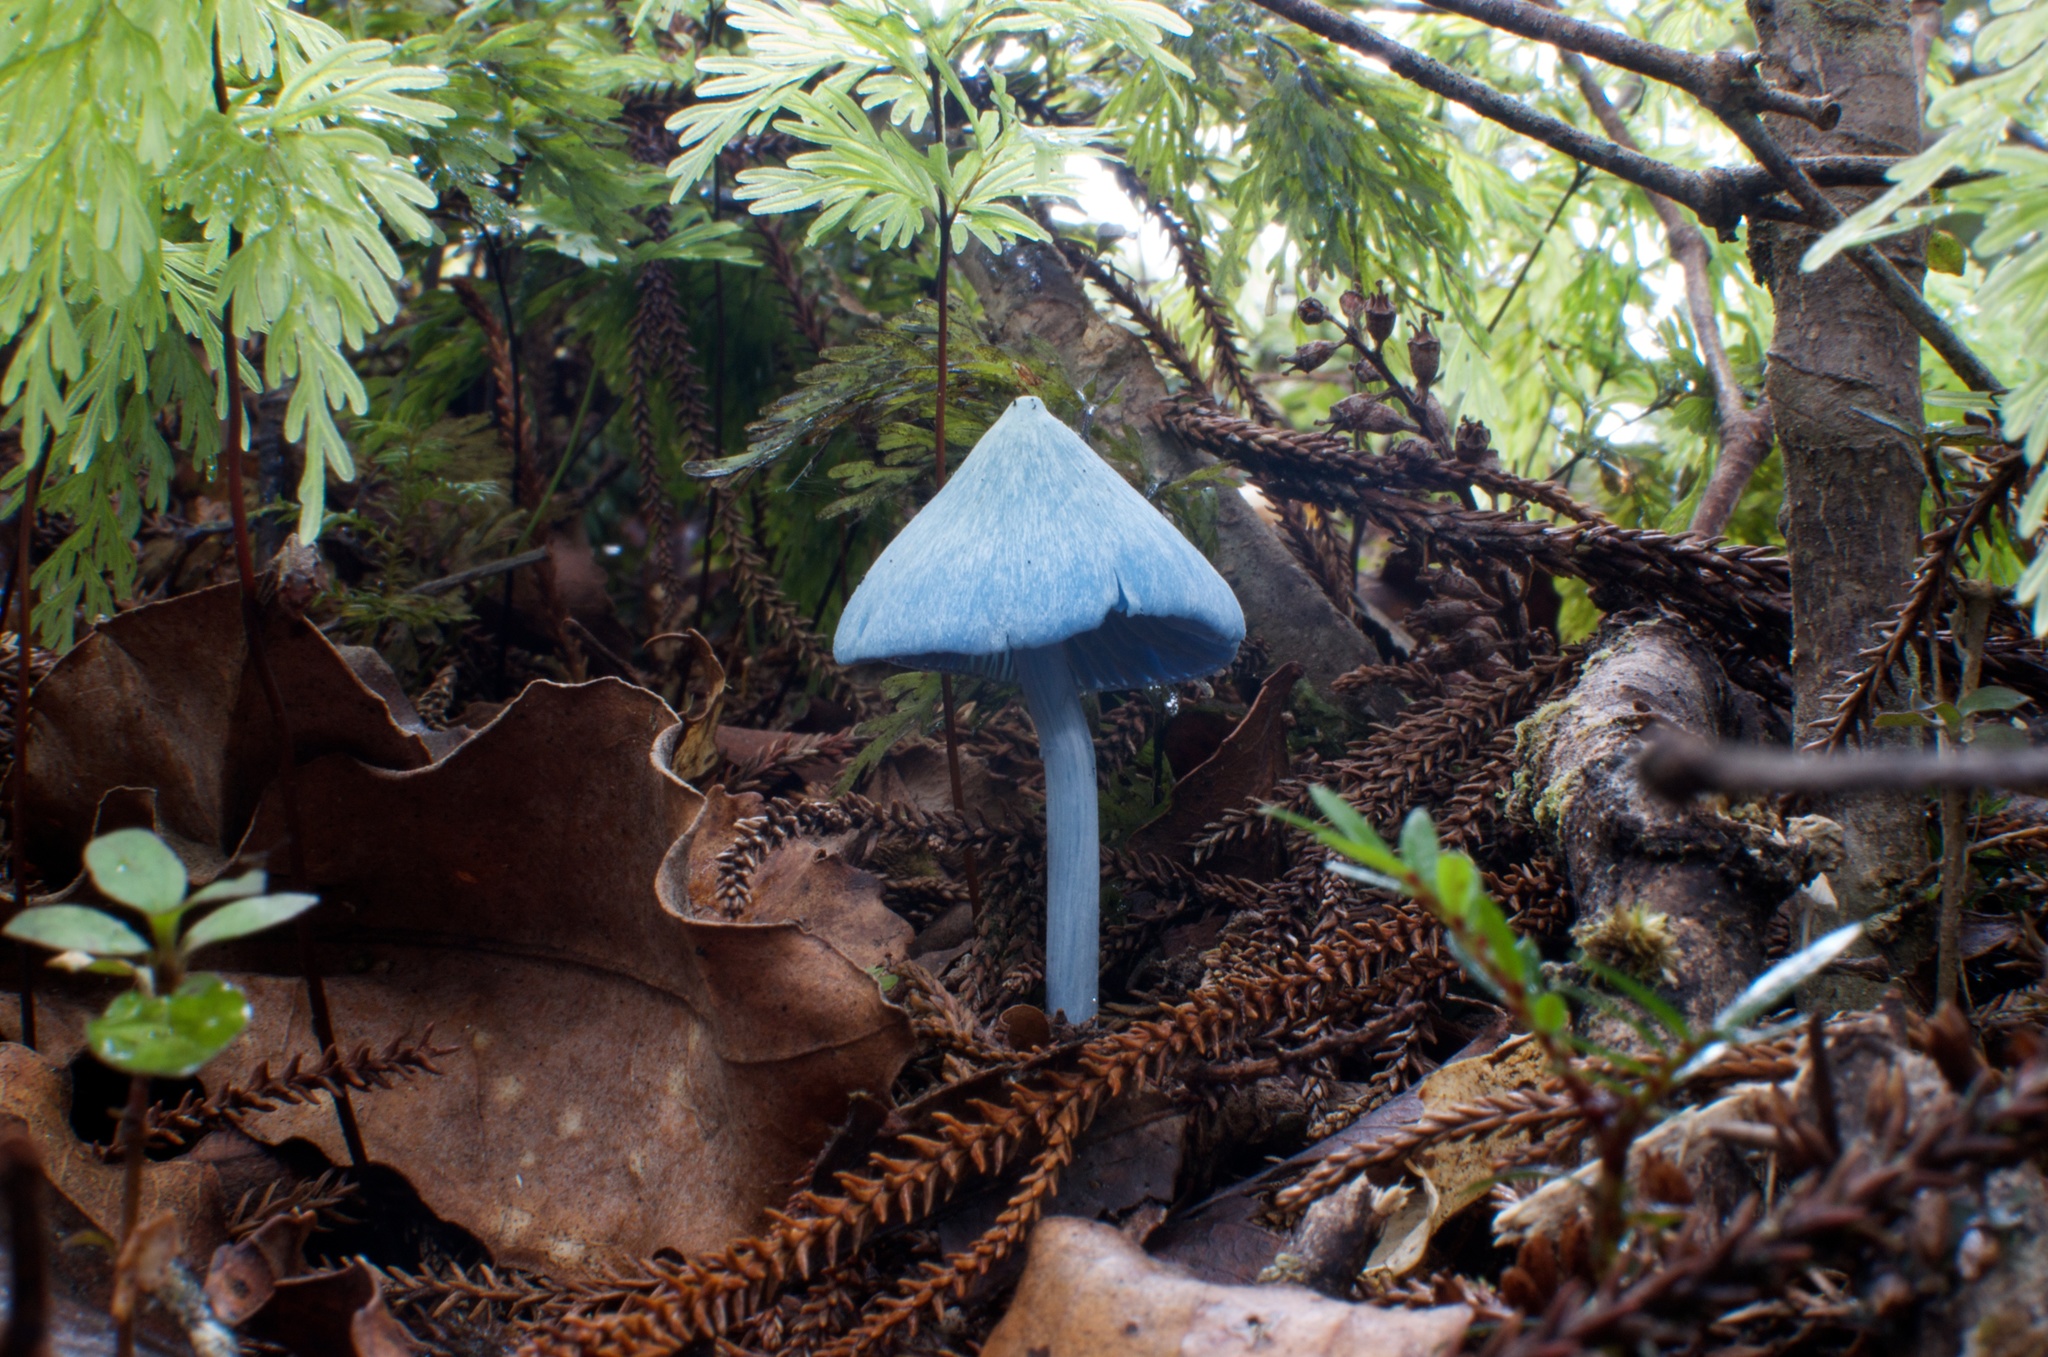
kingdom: Fungi
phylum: Basidiomycota
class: Agaricomycetes
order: Agaricales
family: Entolomataceae
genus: Entoloma
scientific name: Entoloma hochstetteri
